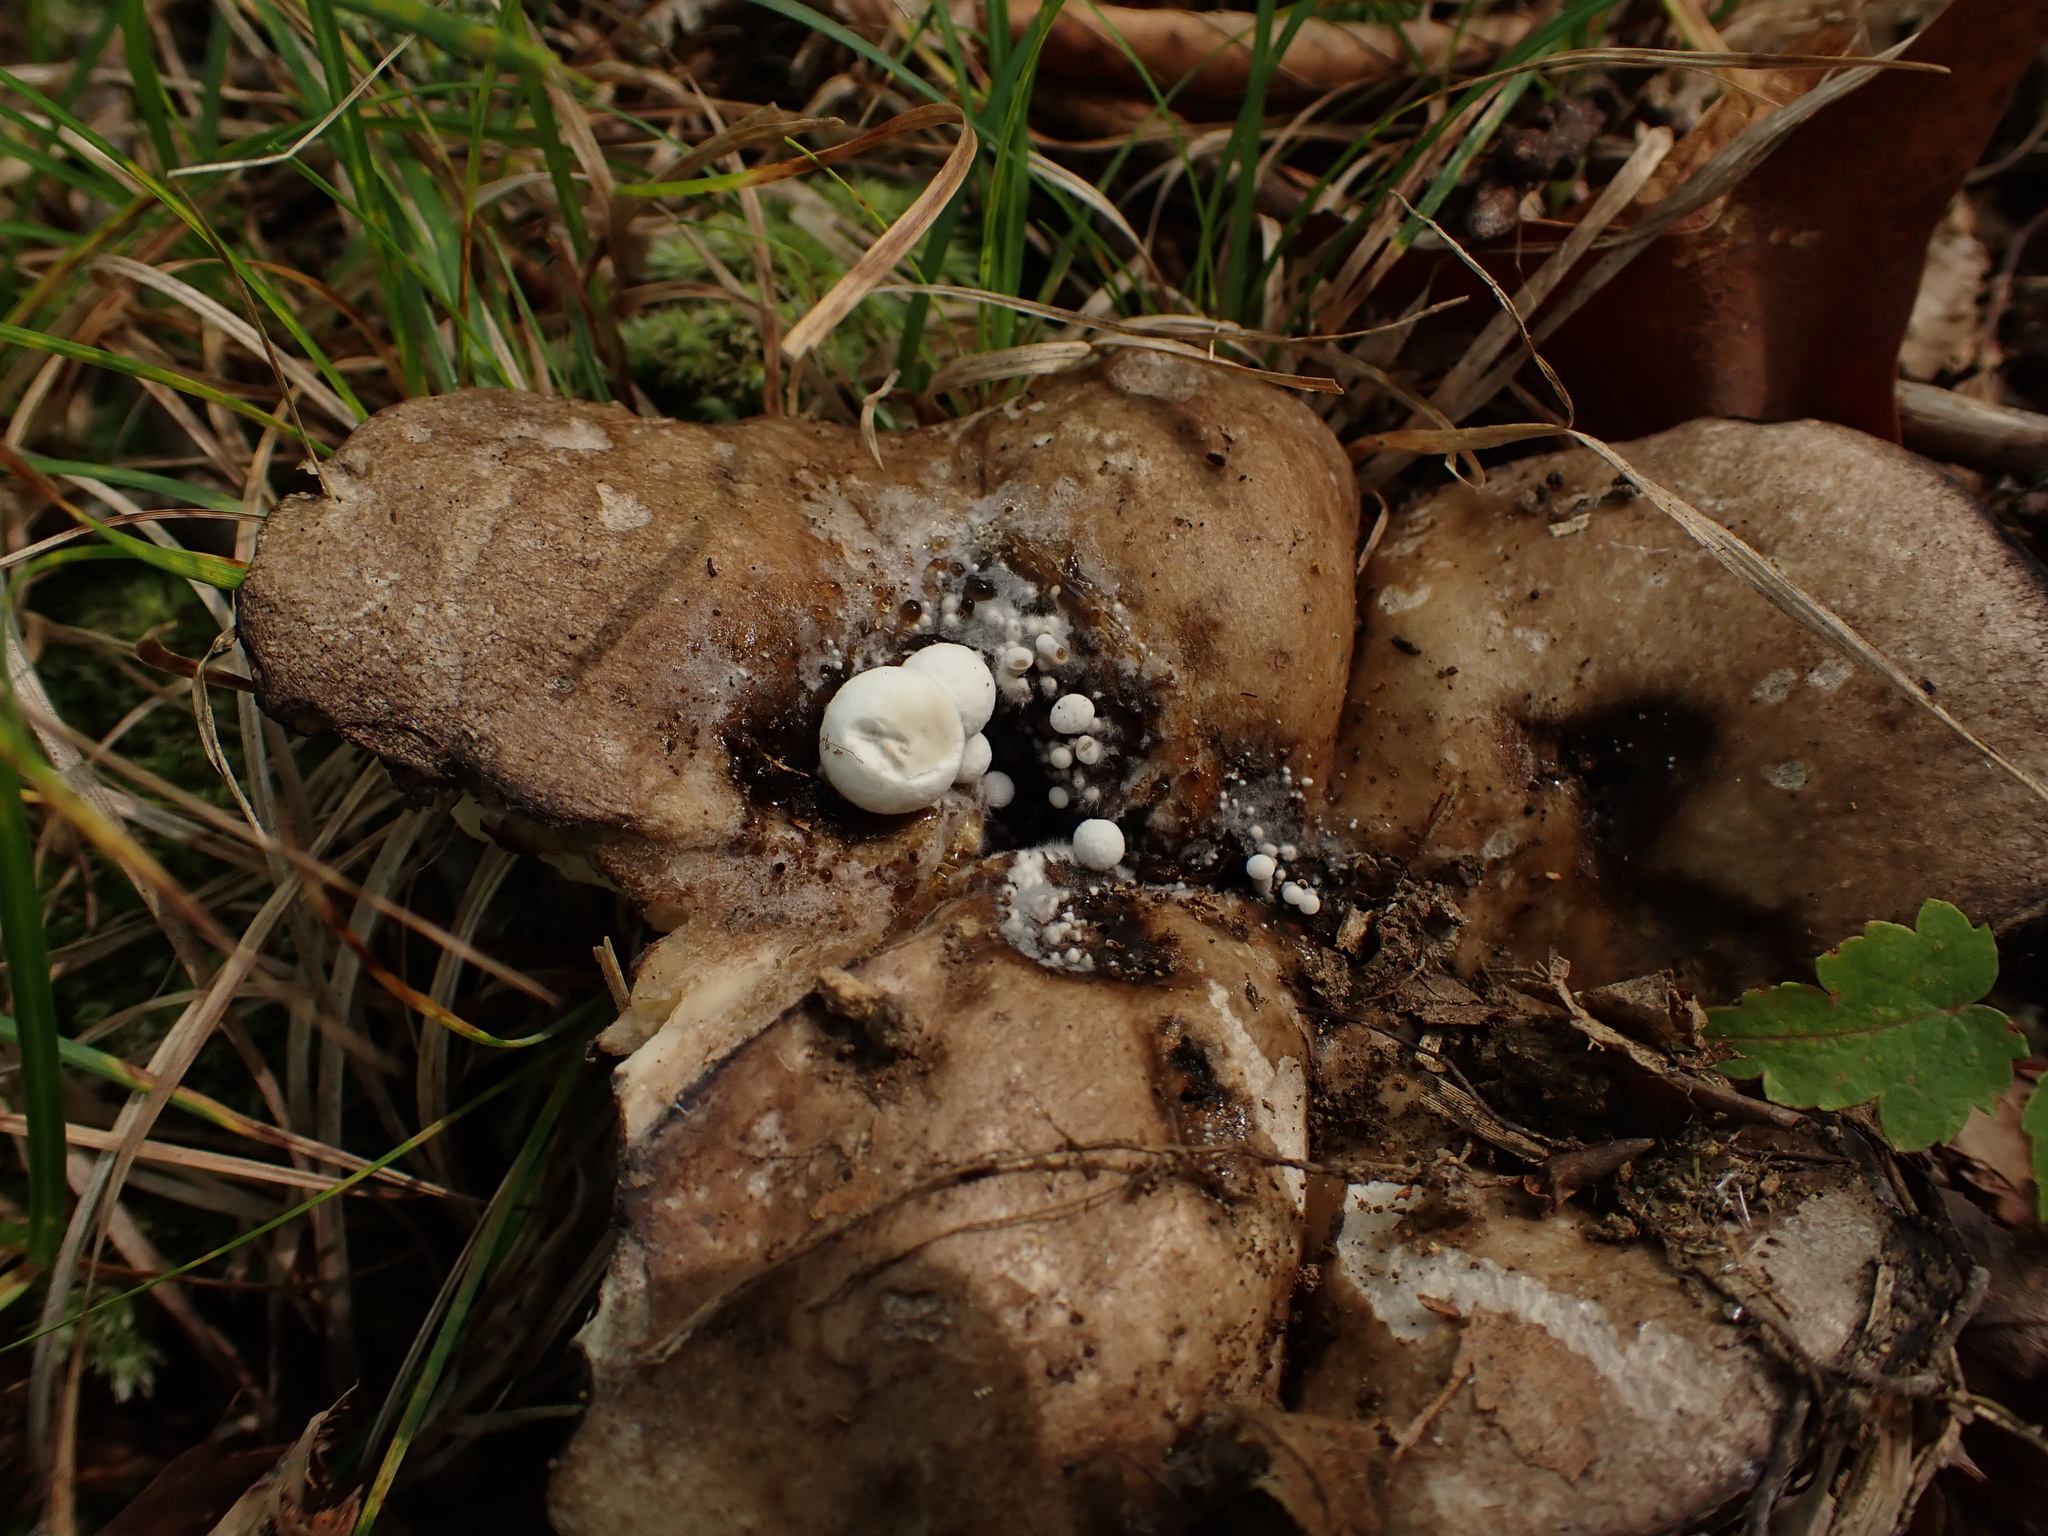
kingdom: Fungi
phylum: Basidiomycota
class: Agaricomycetes
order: Agaricales
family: Lyophyllaceae
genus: Asterophora
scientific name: Asterophora lycoperdoides
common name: Pick-a-back toadstool
